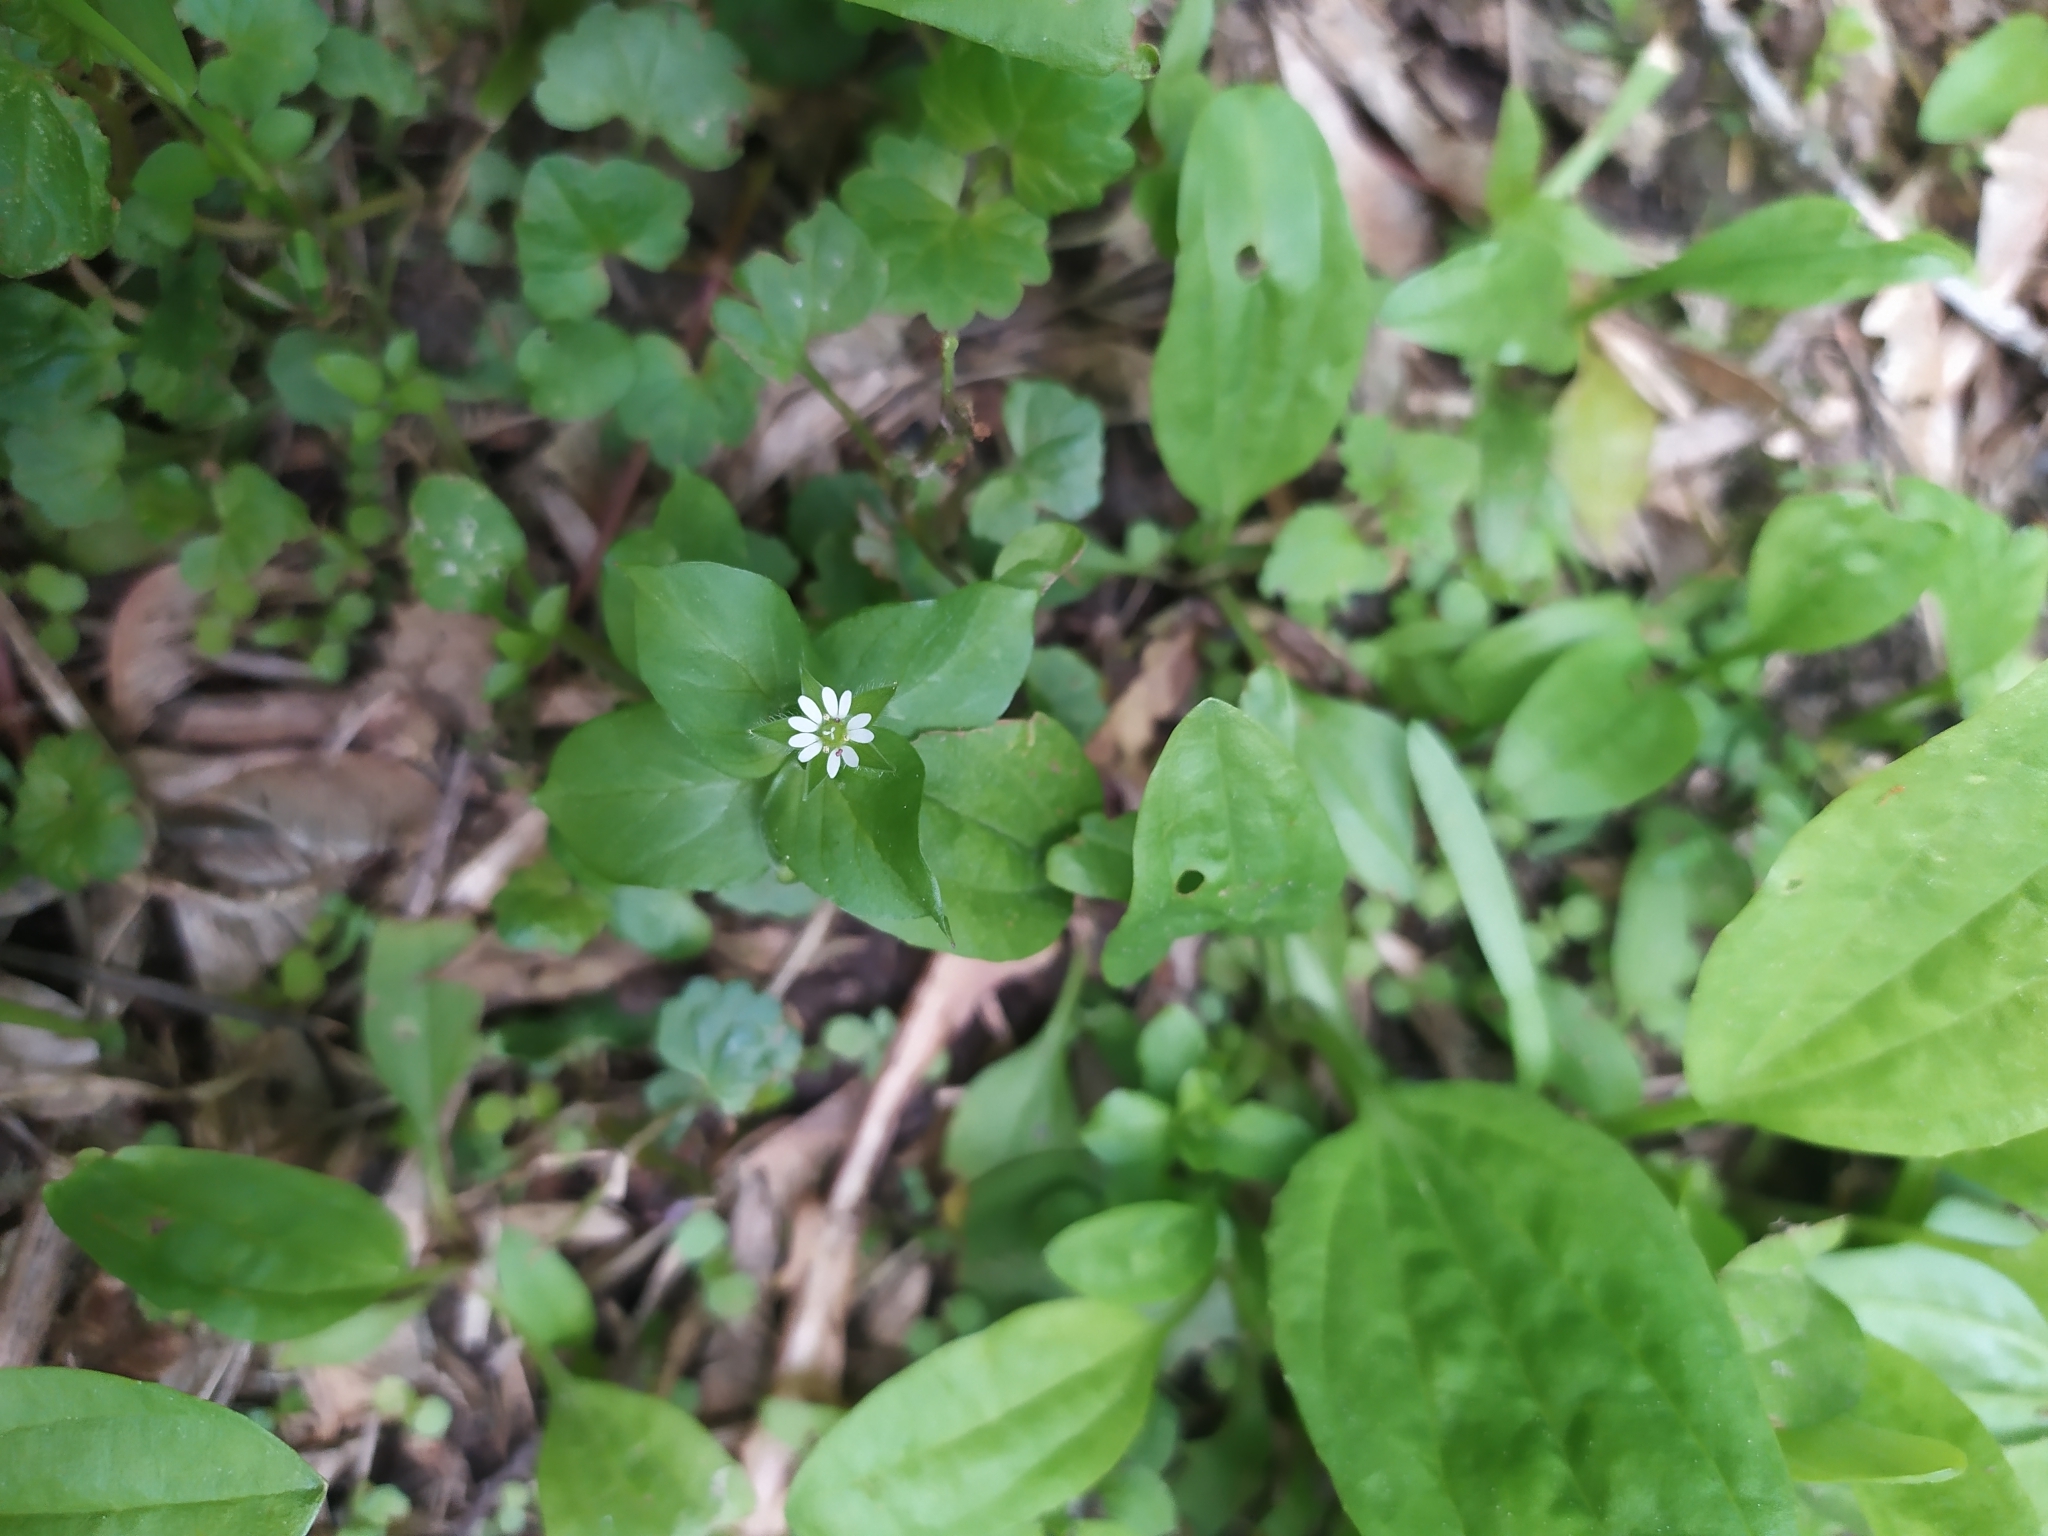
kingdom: Plantae
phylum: Tracheophyta
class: Magnoliopsida
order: Caryophyllales
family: Caryophyllaceae
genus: Stellaria
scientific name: Stellaria media
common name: Common chickweed
